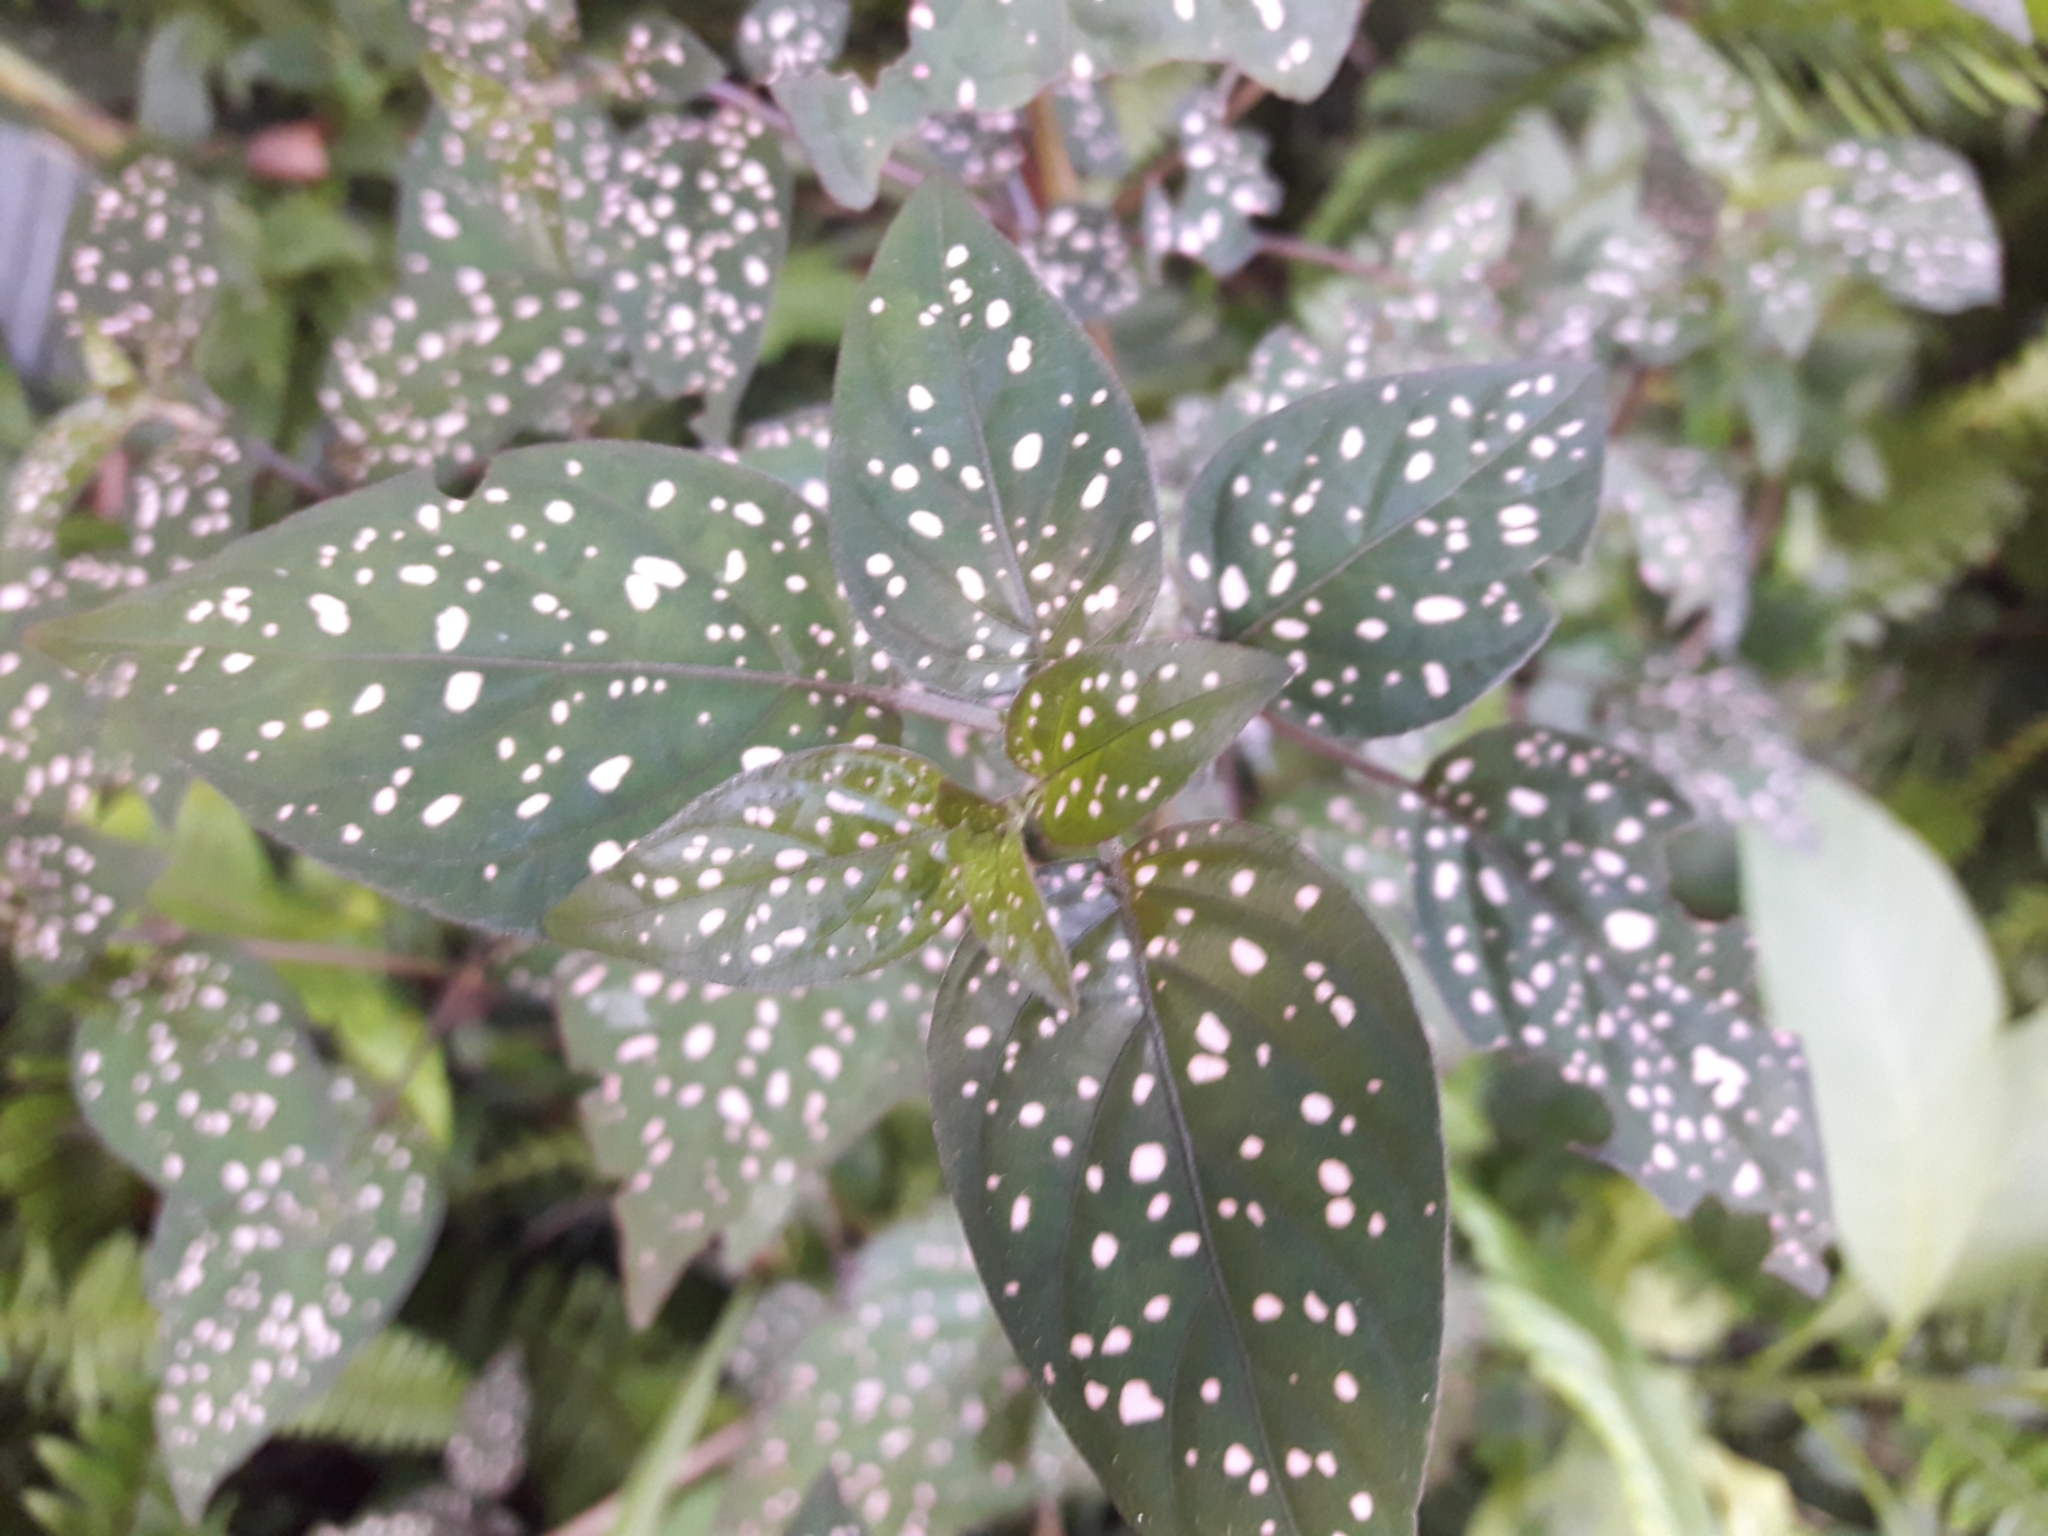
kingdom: Plantae
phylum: Tracheophyta
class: Magnoliopsida
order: Lamiales
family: Acanthaceae
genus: Hypoestes
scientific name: Hypoestes phyllostachya
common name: Polkadot-plant
